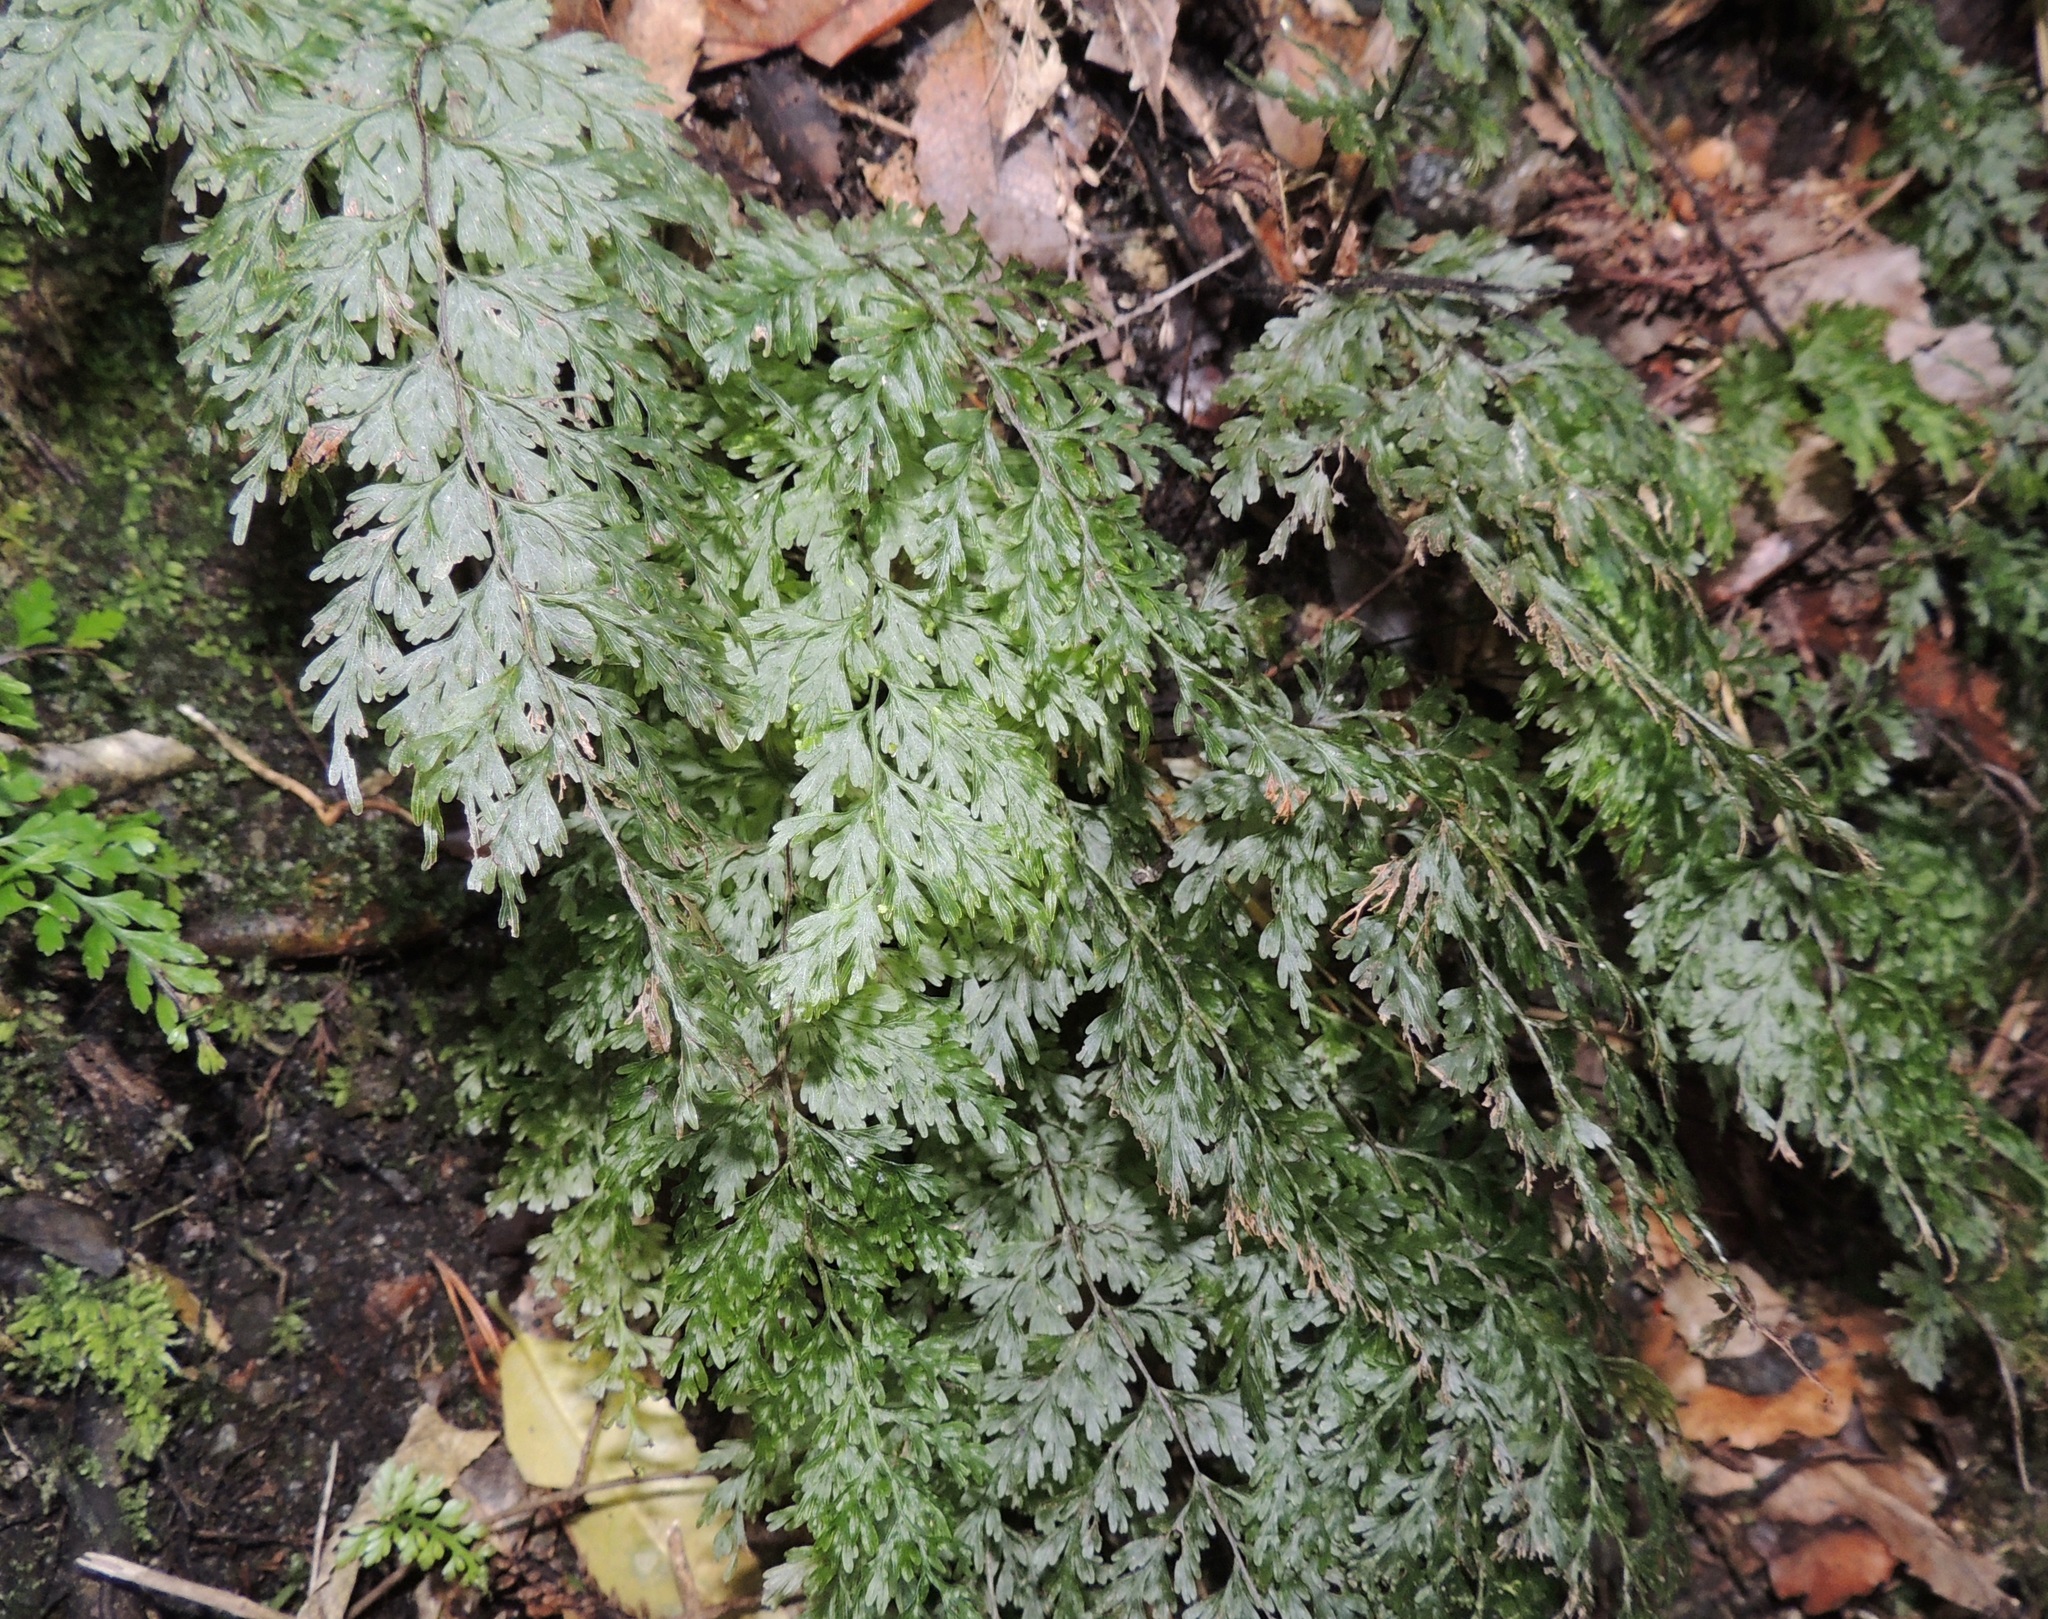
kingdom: Plantae
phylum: Tracheophyta
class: Polypodiopsida
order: Hymenophyllales
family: Hymenophyllaceae
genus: Hymenophyllum
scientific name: Hymenophyllum demissum
